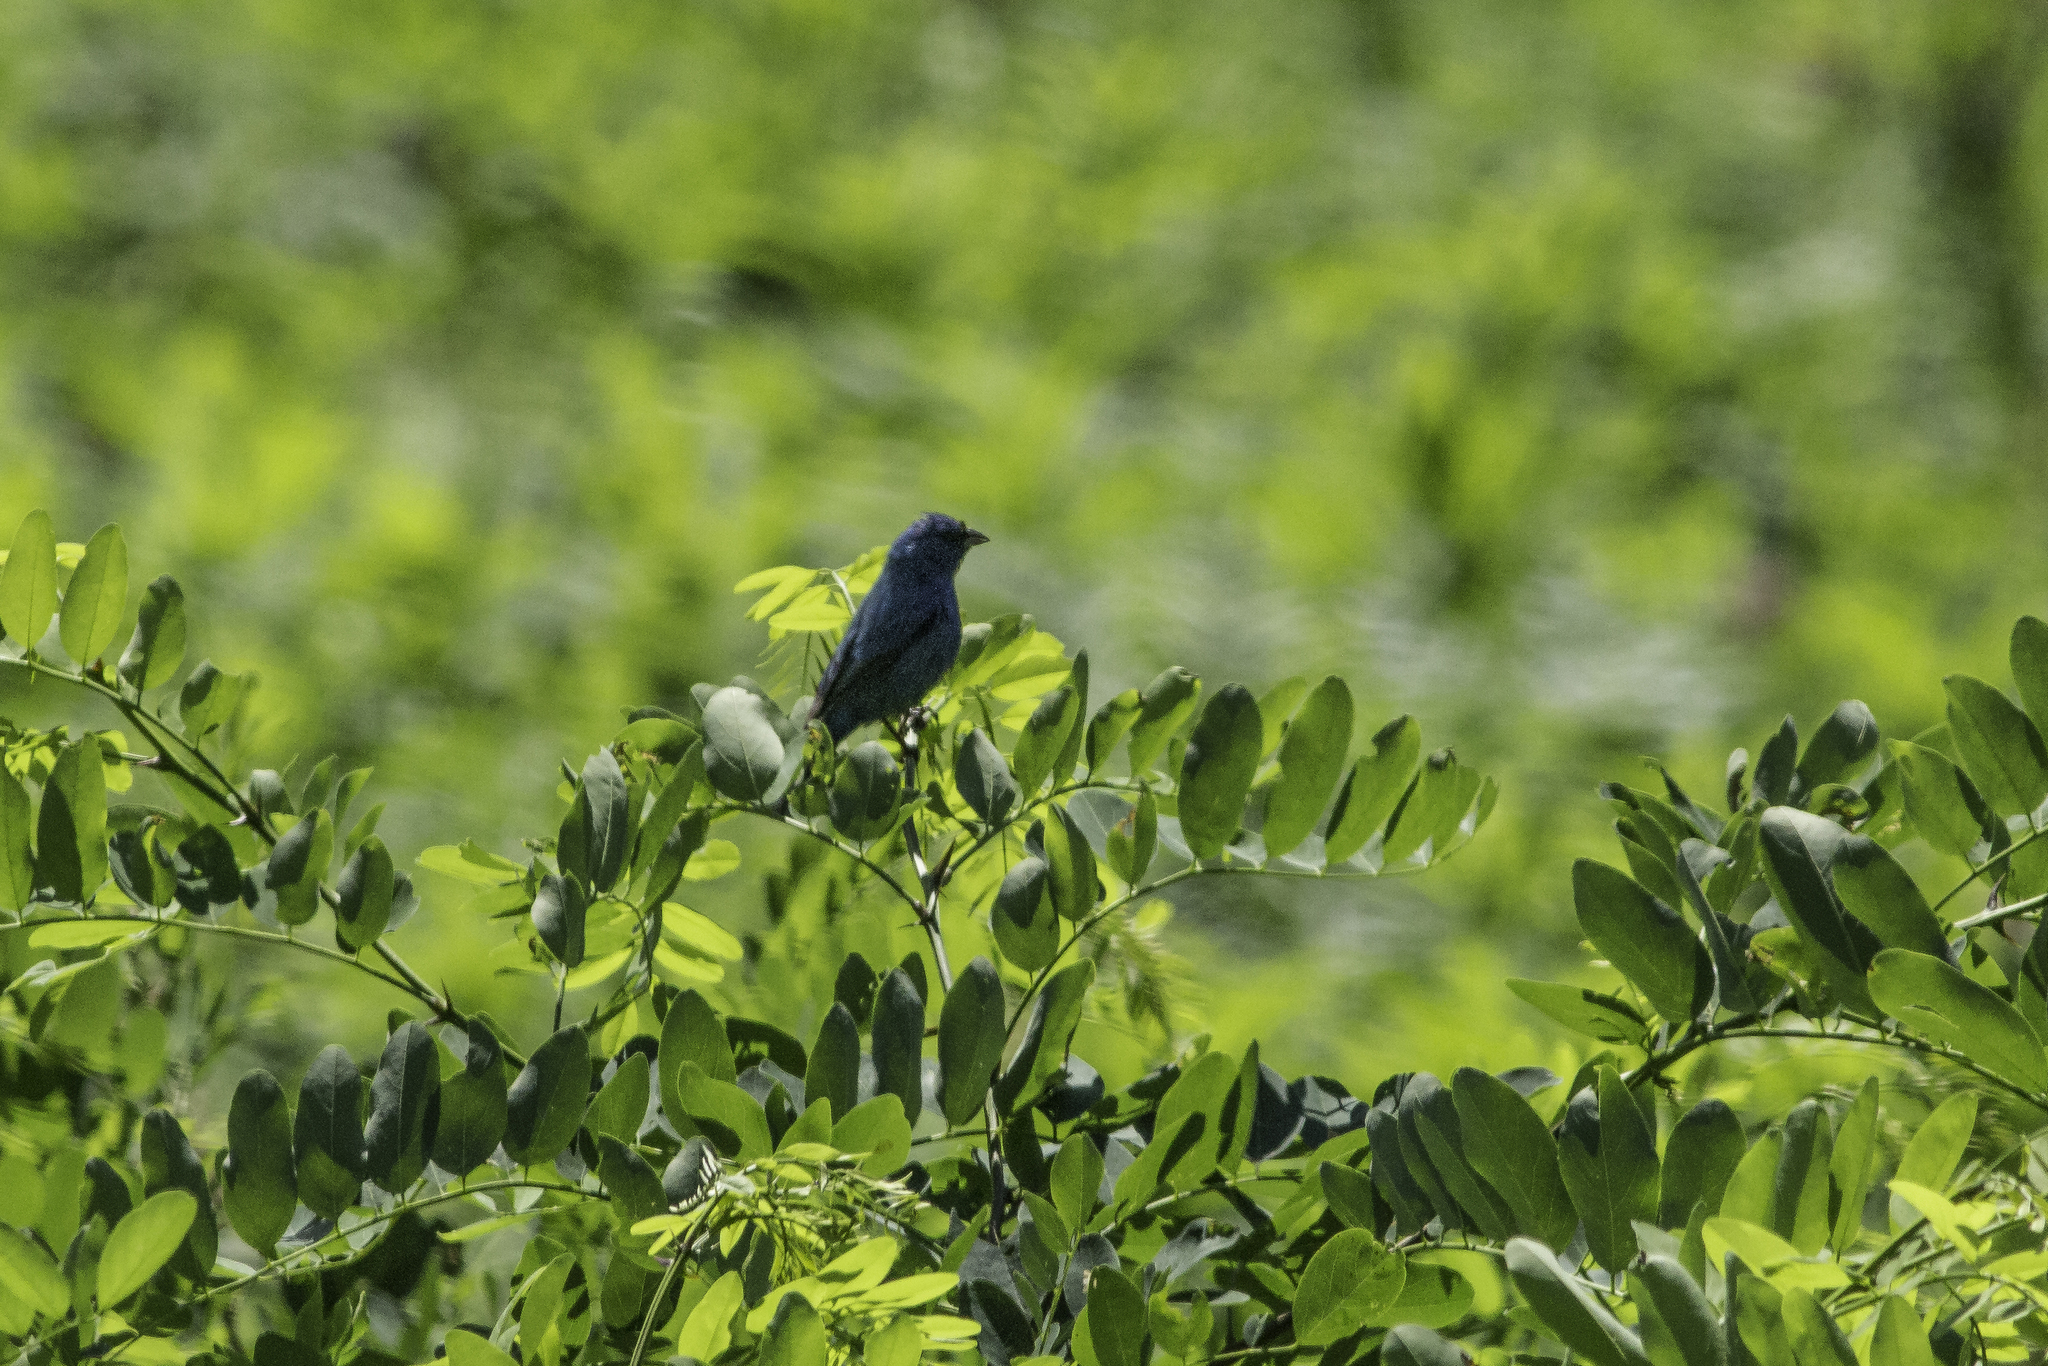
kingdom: Animalia
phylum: Chordata
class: Aves
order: Passeriformes
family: Cardinalidae
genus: Passerina
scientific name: Passerina cyanea
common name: Indigo bunting
